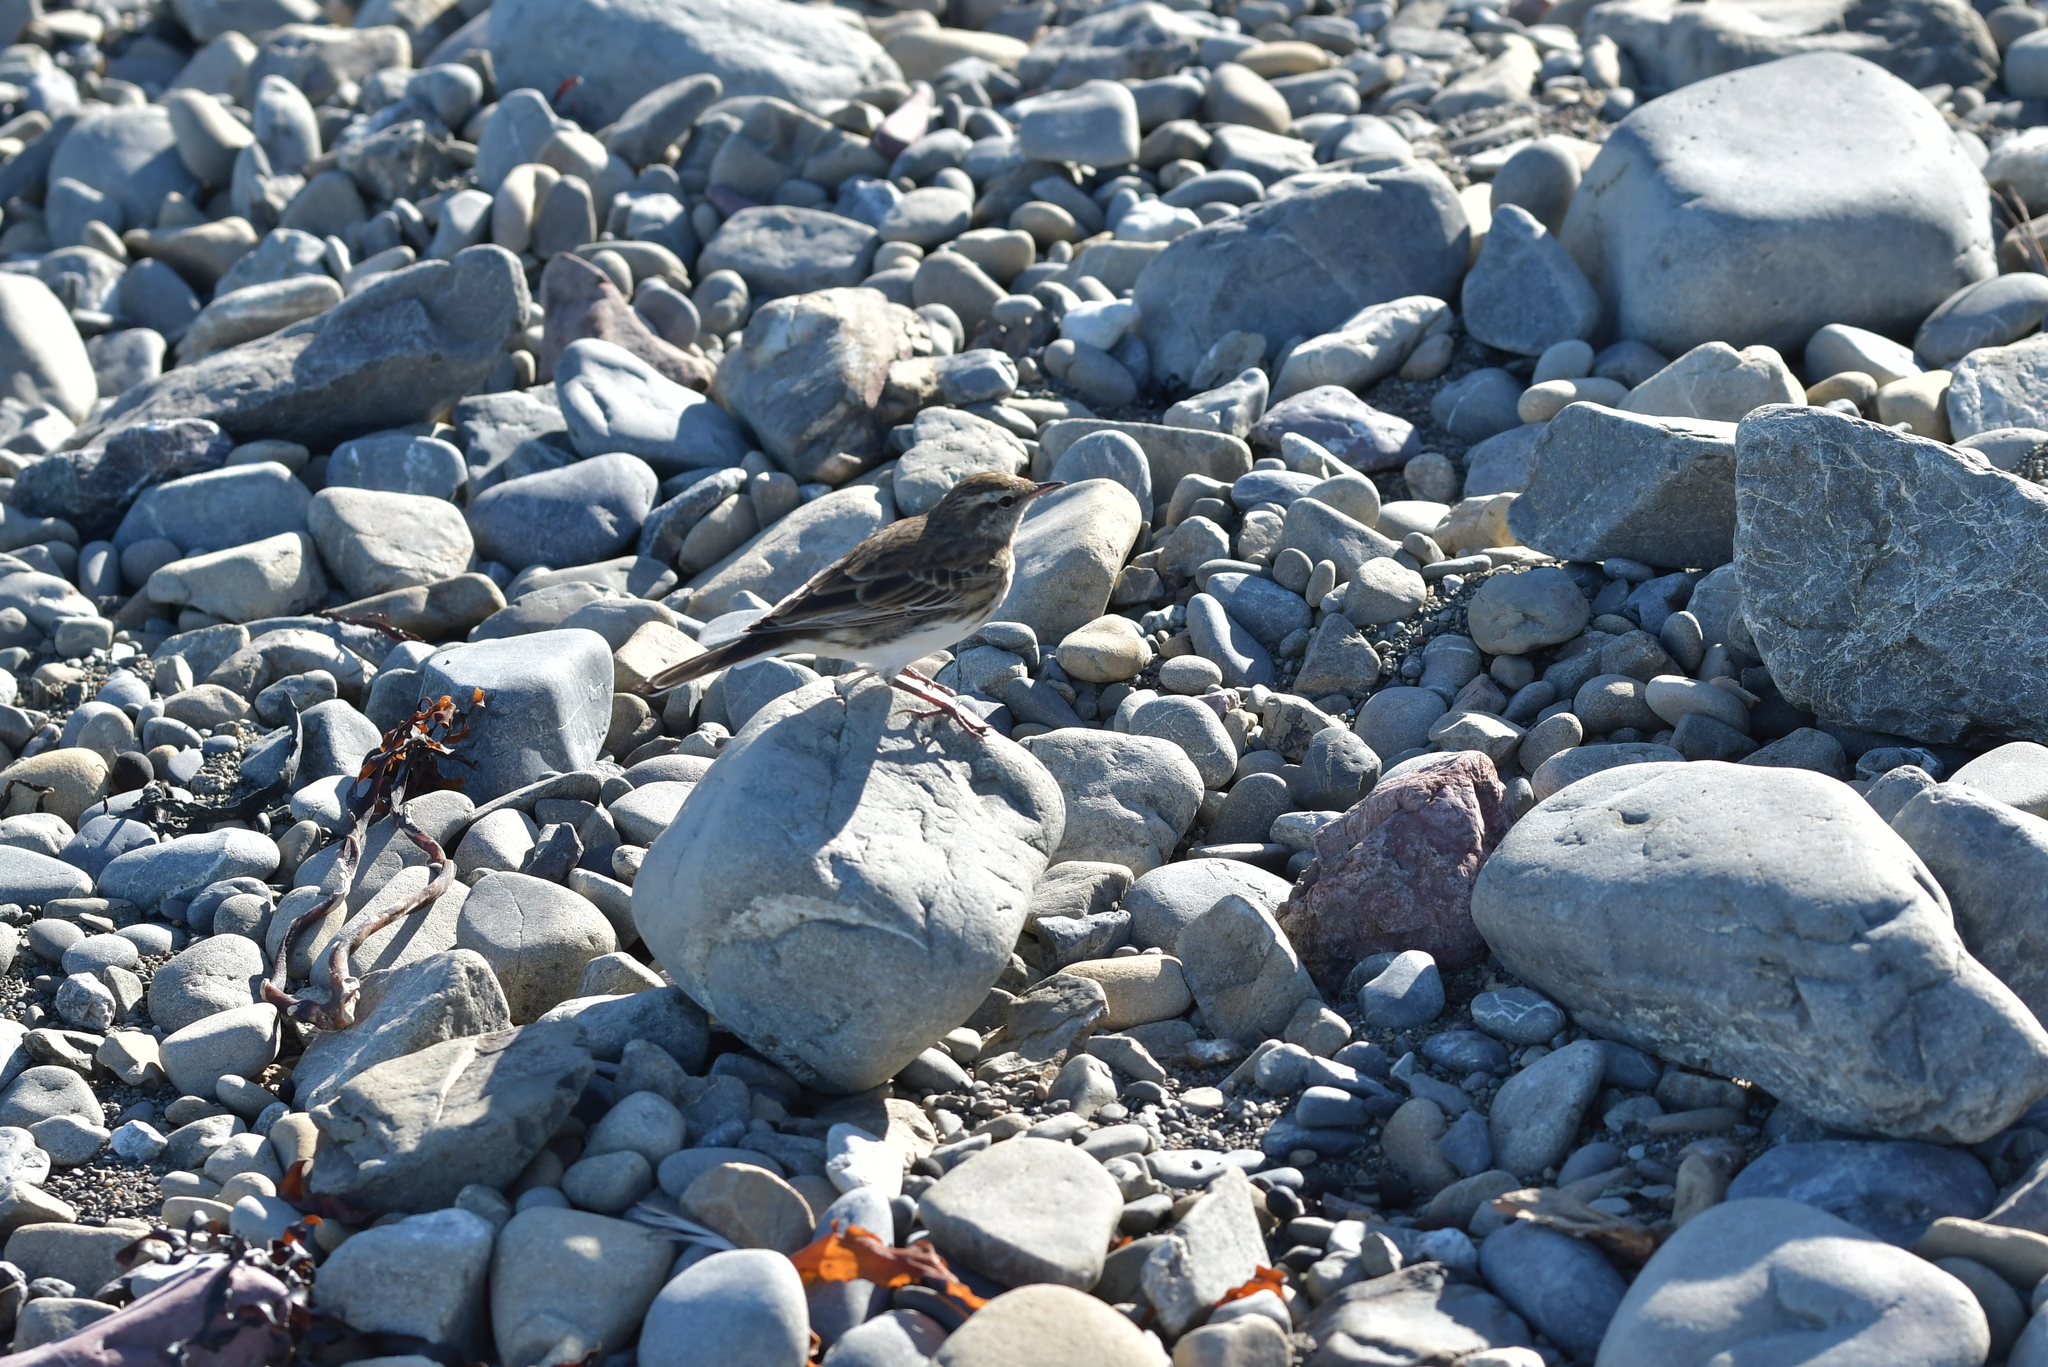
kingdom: Animalia
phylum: Chordata
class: Aves
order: Passeriformes
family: Motacillidae
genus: Anthus
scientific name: Anthus novaeseelandiae
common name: New zealand pipit
